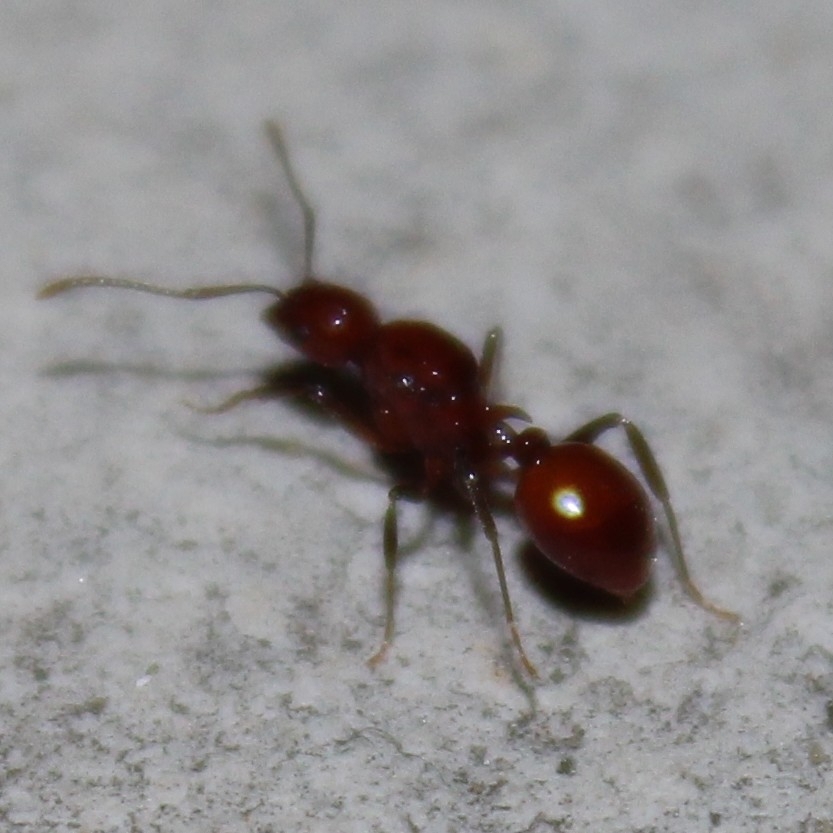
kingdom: Animalia
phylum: Arthropoda
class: Insecta
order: Hymenoptera
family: Formicidae
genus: Aphaenogaster
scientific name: Aphaenogaster tennesseensis
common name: Tennessee thread-waisted ant
